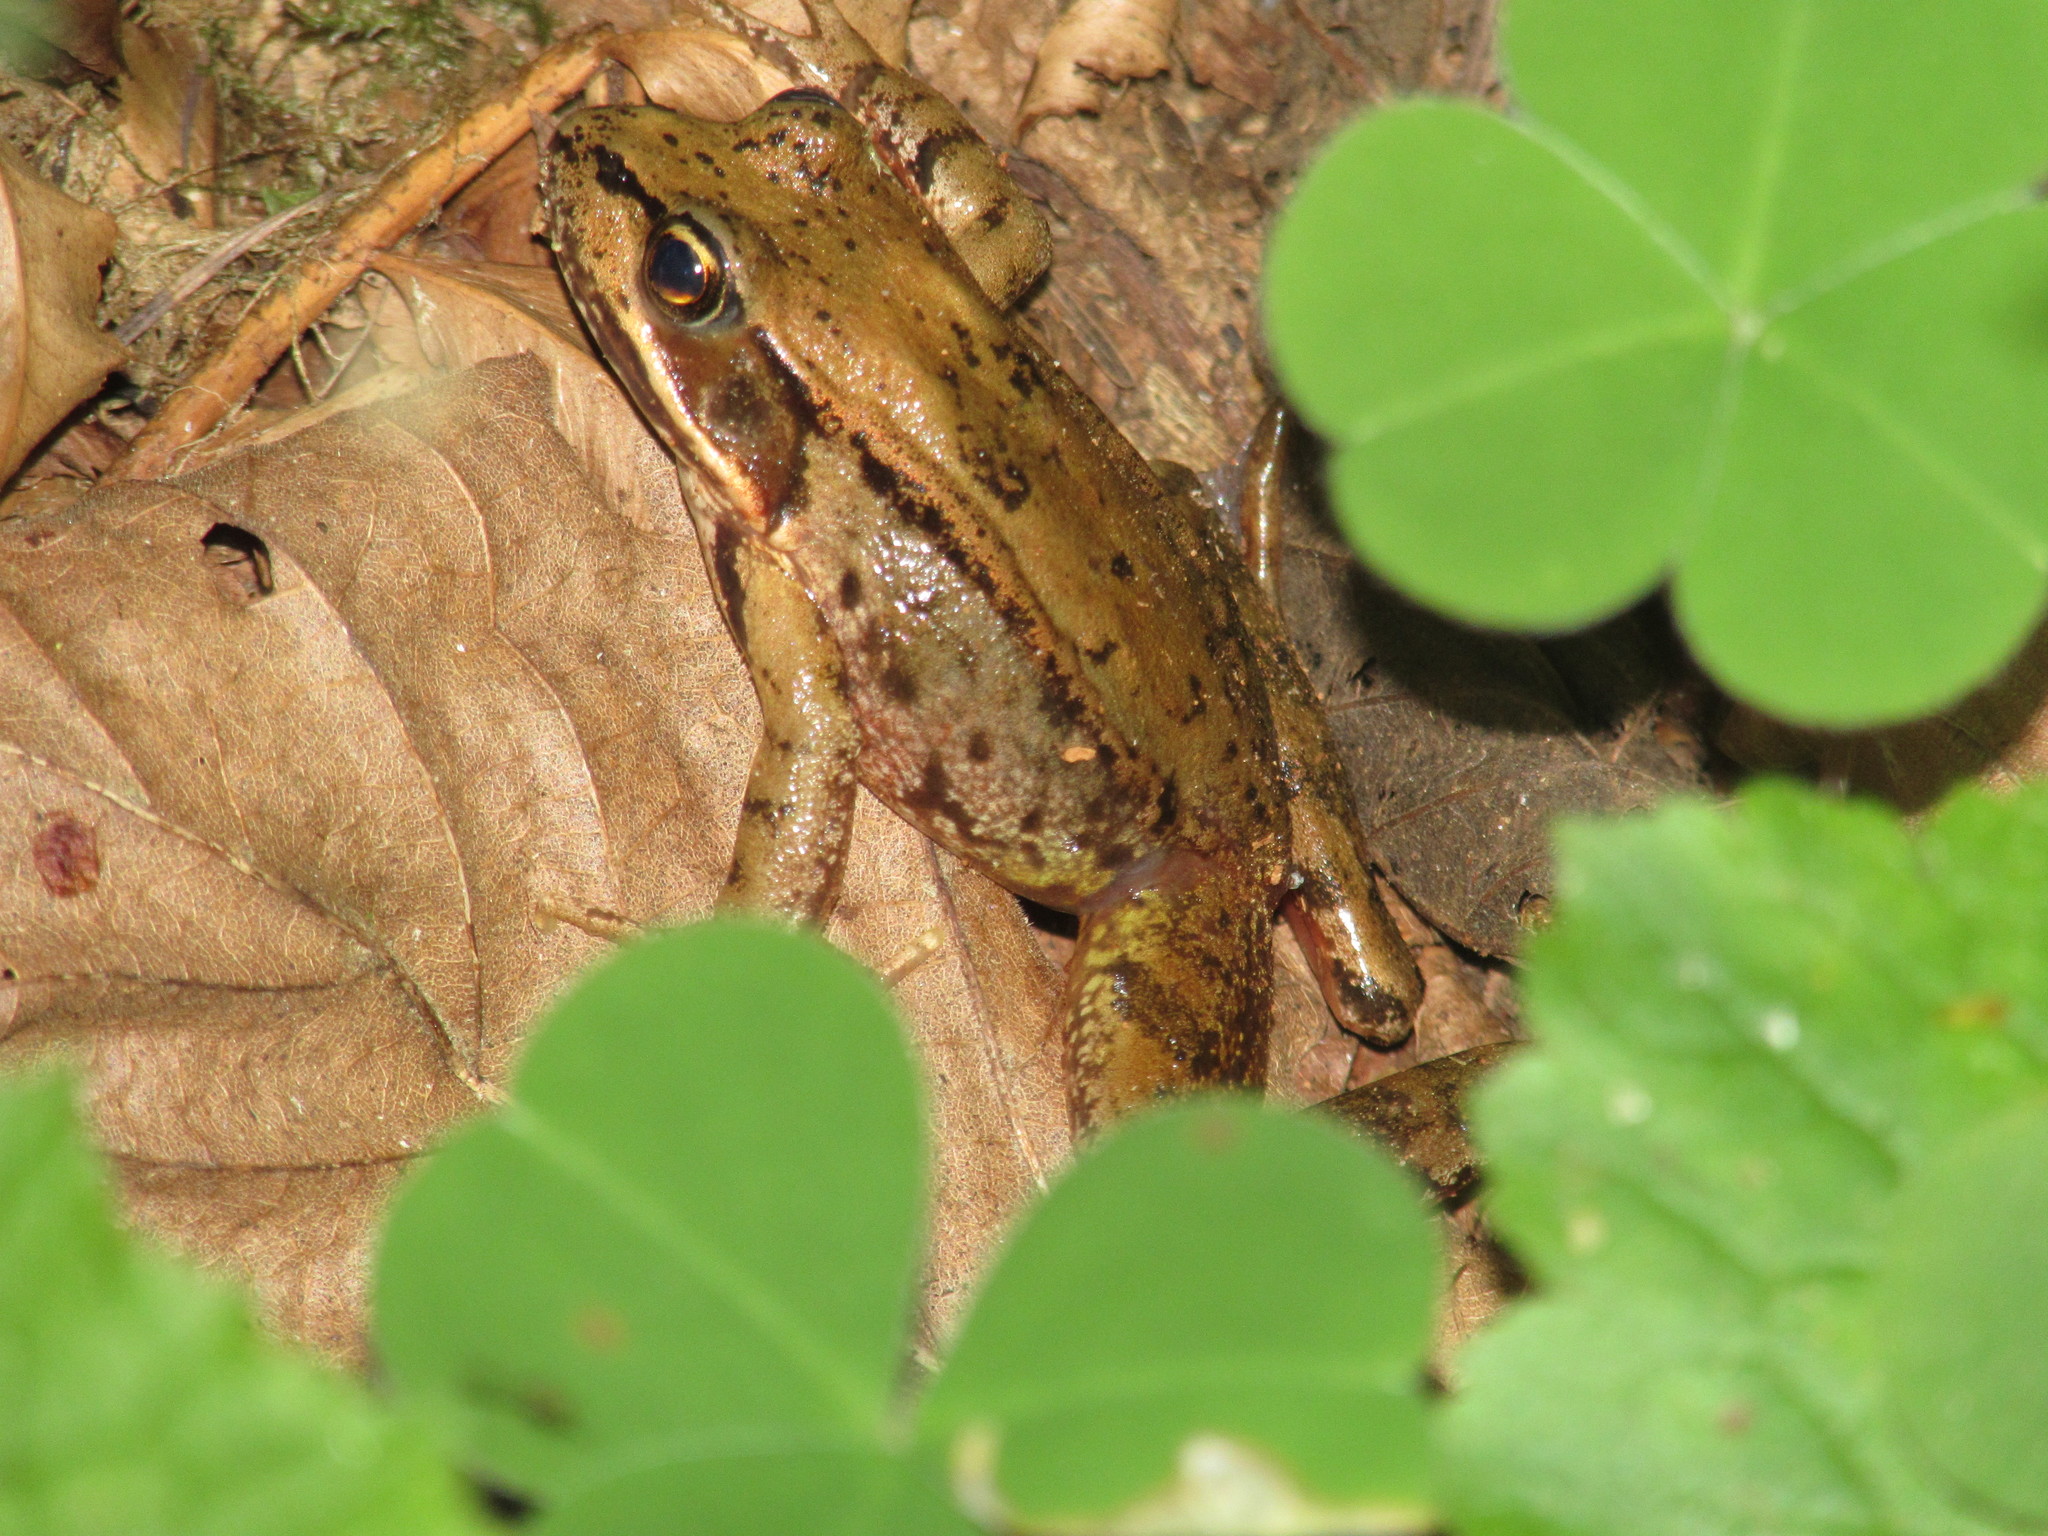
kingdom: Animalia
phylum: Chordata
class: Amphibia
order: Anura
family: Ranidae
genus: Rana
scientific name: Rana aurora
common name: Red-legged frog
